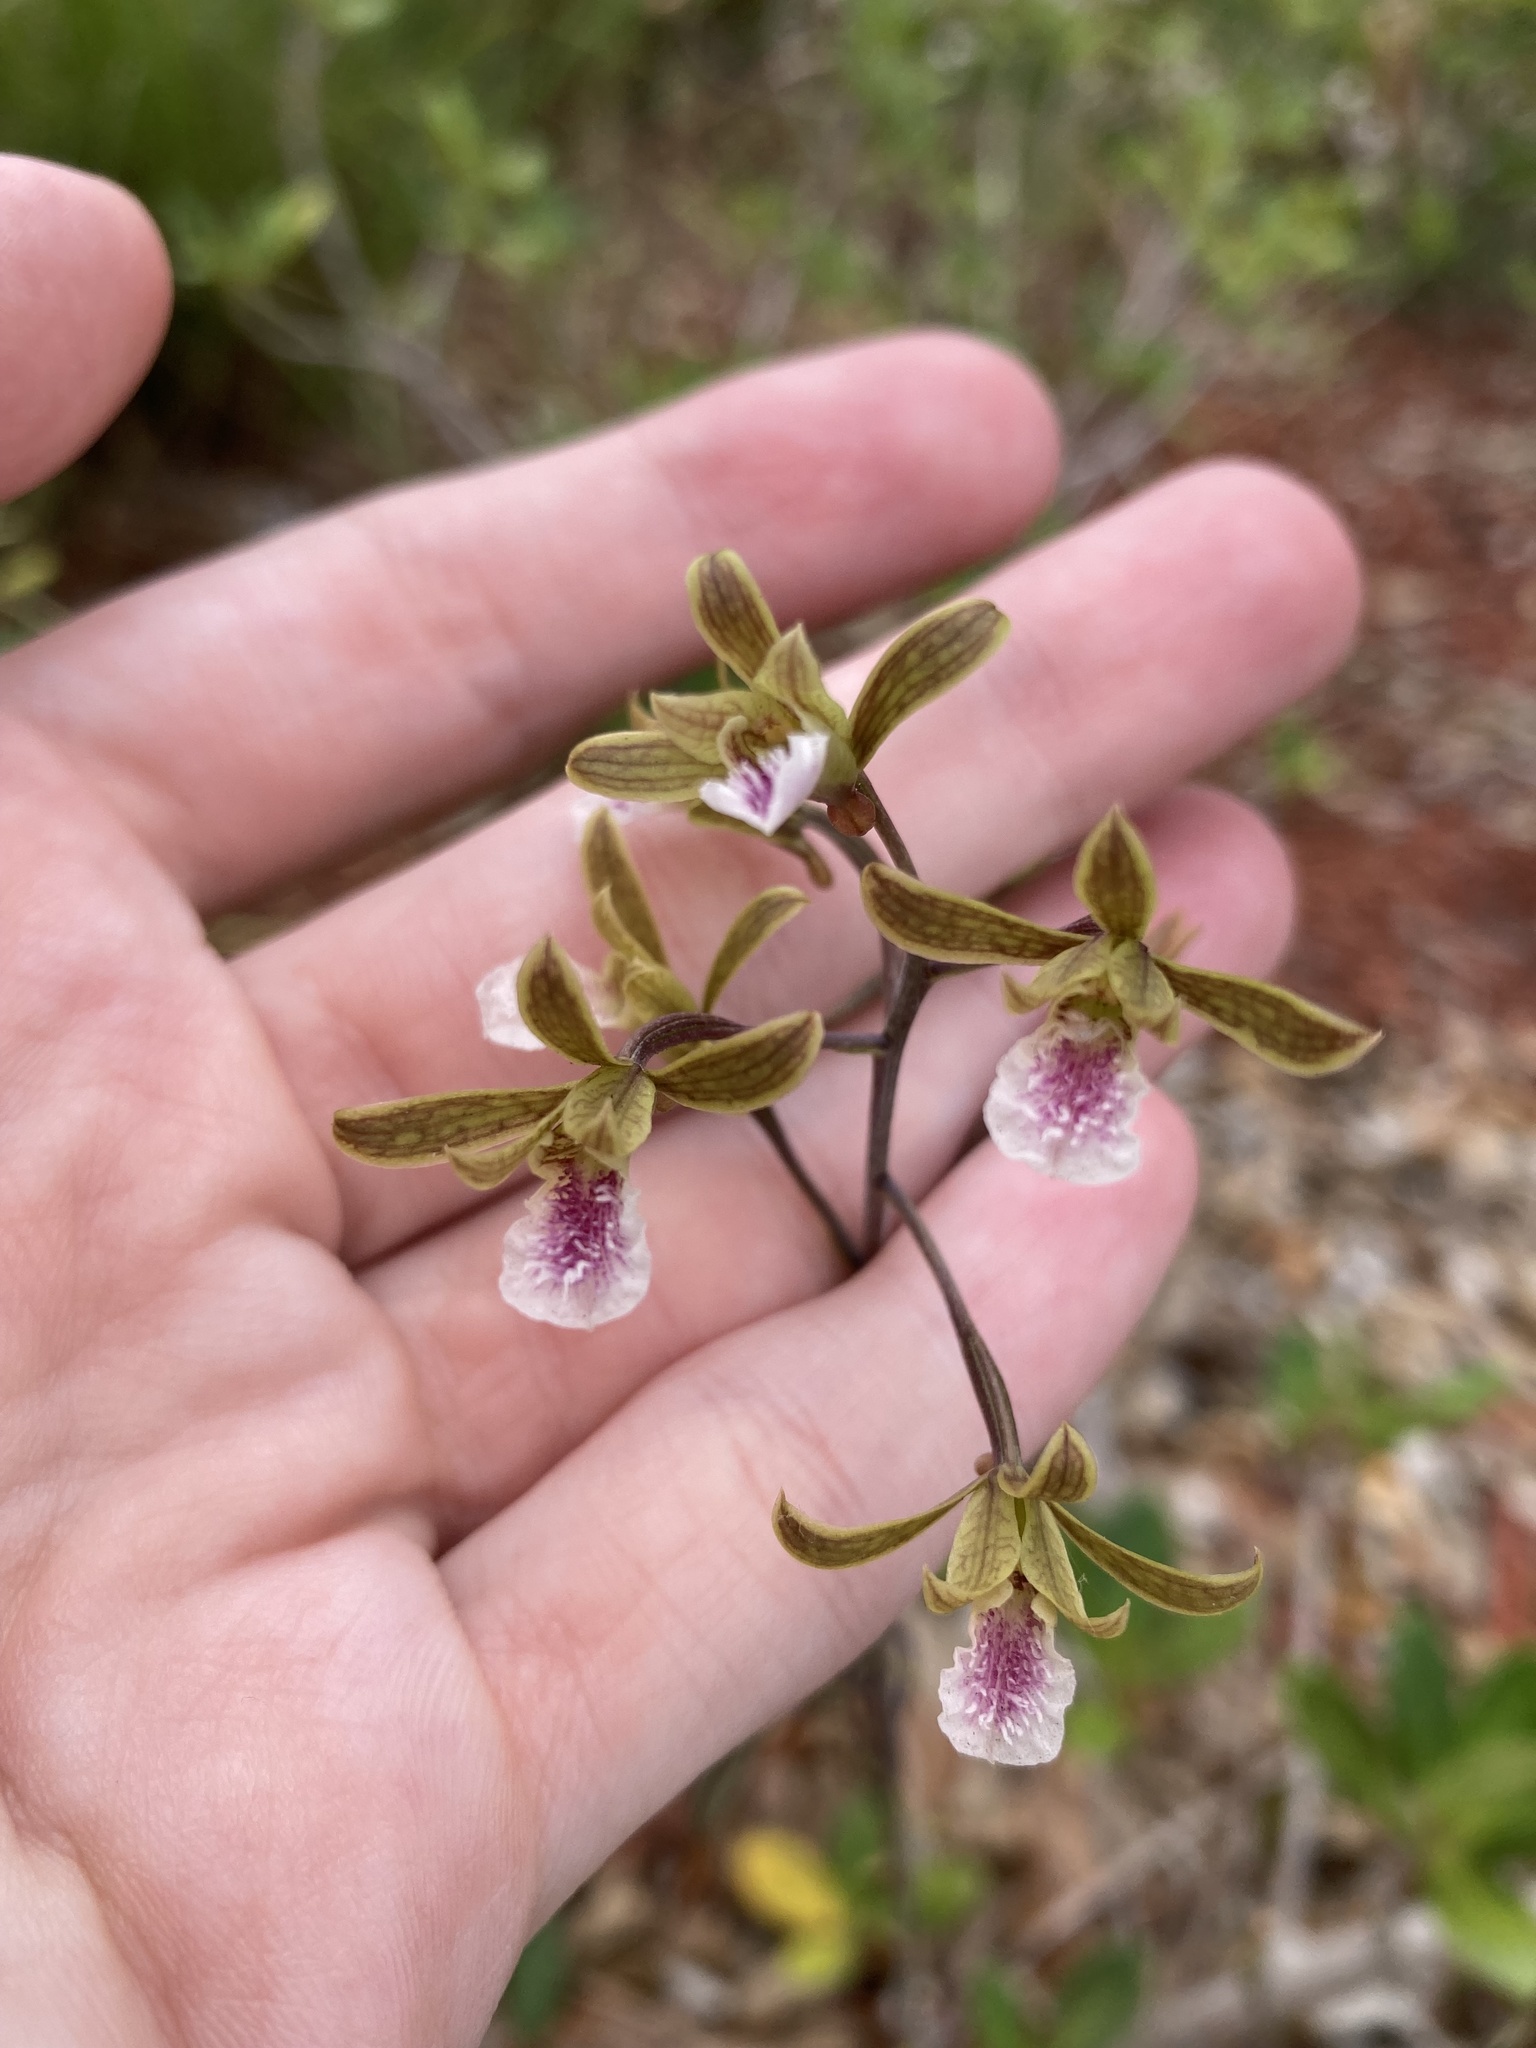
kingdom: Plantae
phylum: Tracheophyta
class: Liliopsida
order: Asparagales
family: Orchidaceae
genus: Eulophia
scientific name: Eulophia graminea
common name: Orchid
